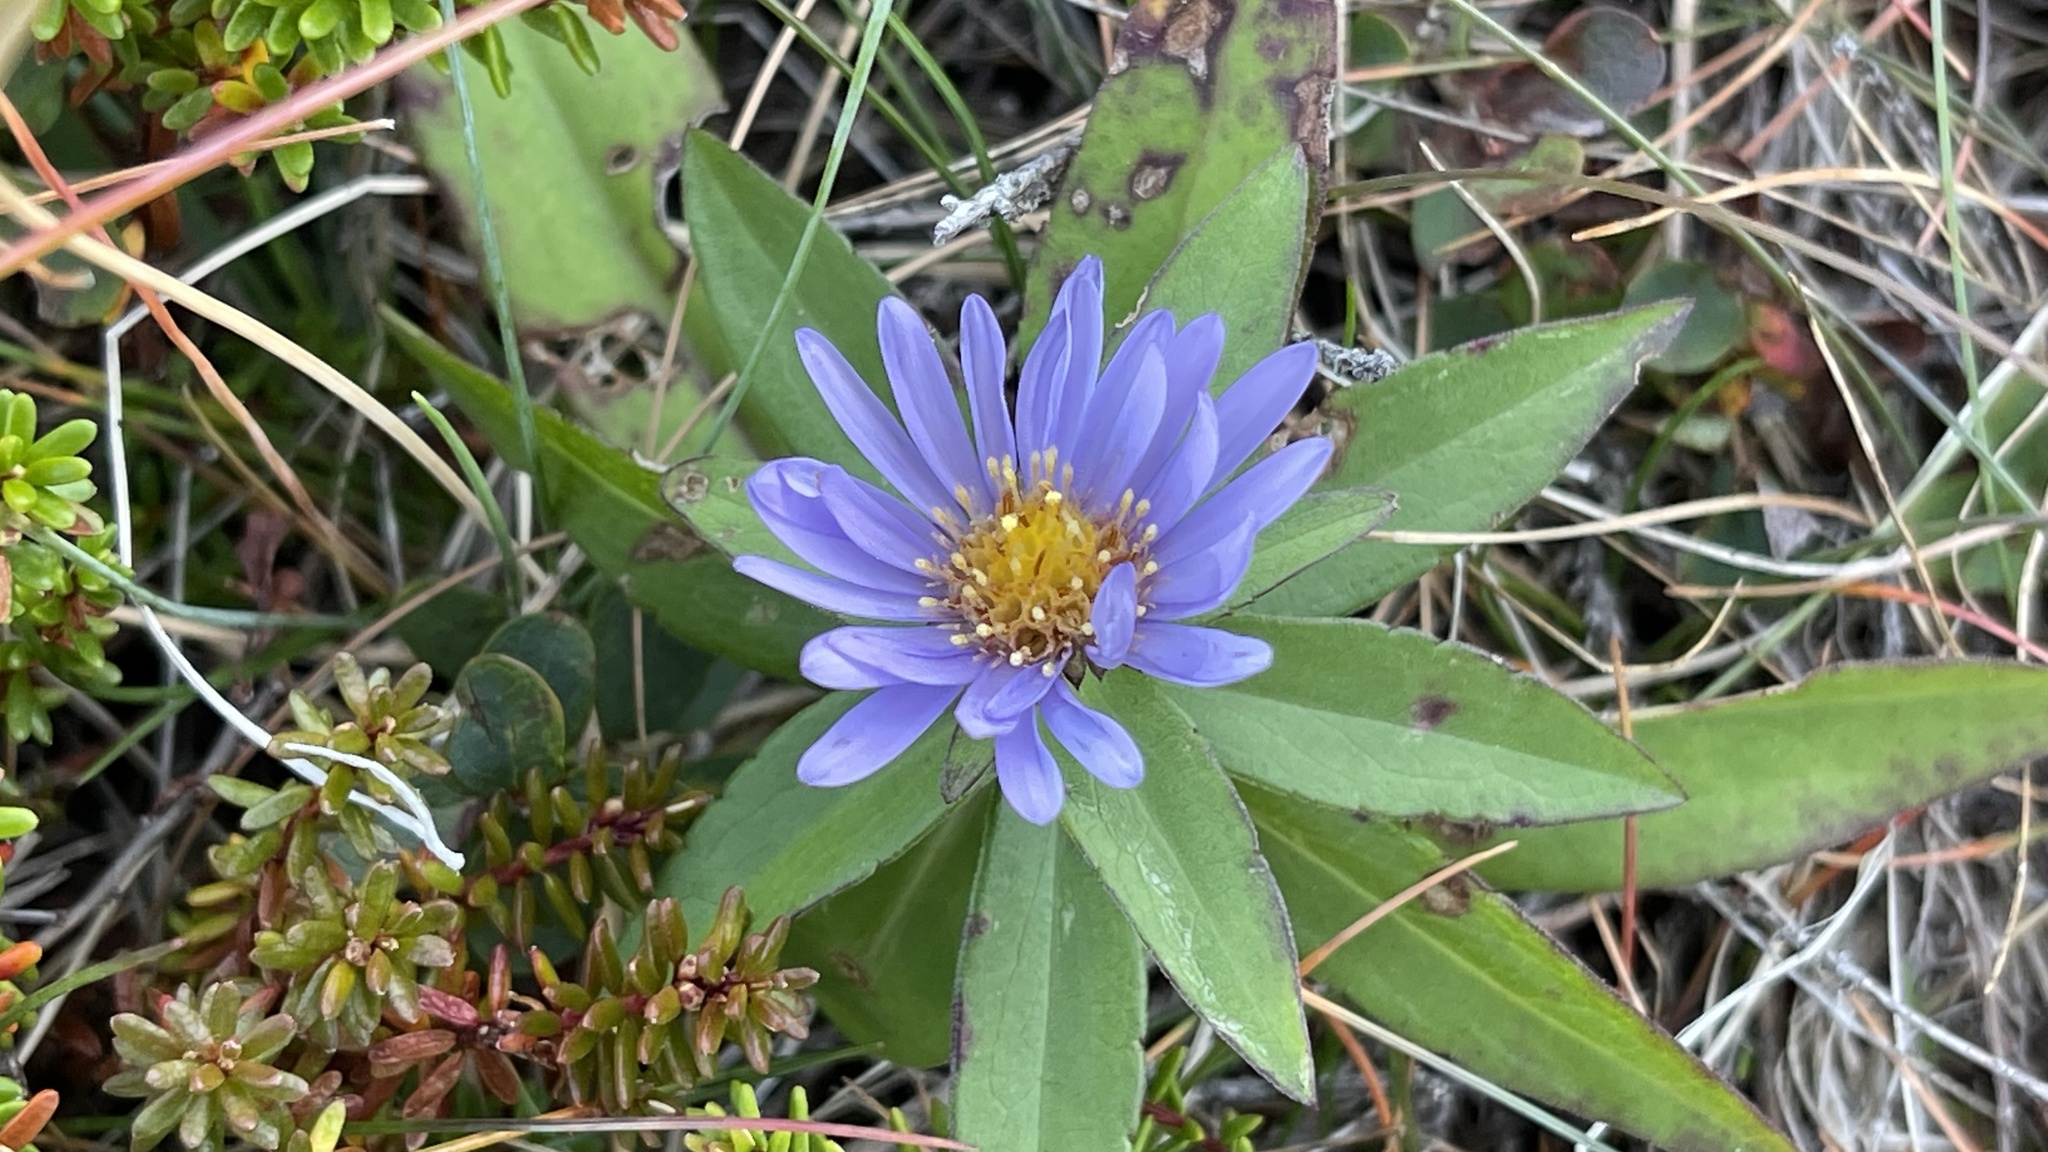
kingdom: Plantae
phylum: Tracheophyta
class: Magnoliopsida
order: Asterales
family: Asteraceae
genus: Symphyotrichum
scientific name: Symphyotrichum novi-belgii
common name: Michaelmas daisy
